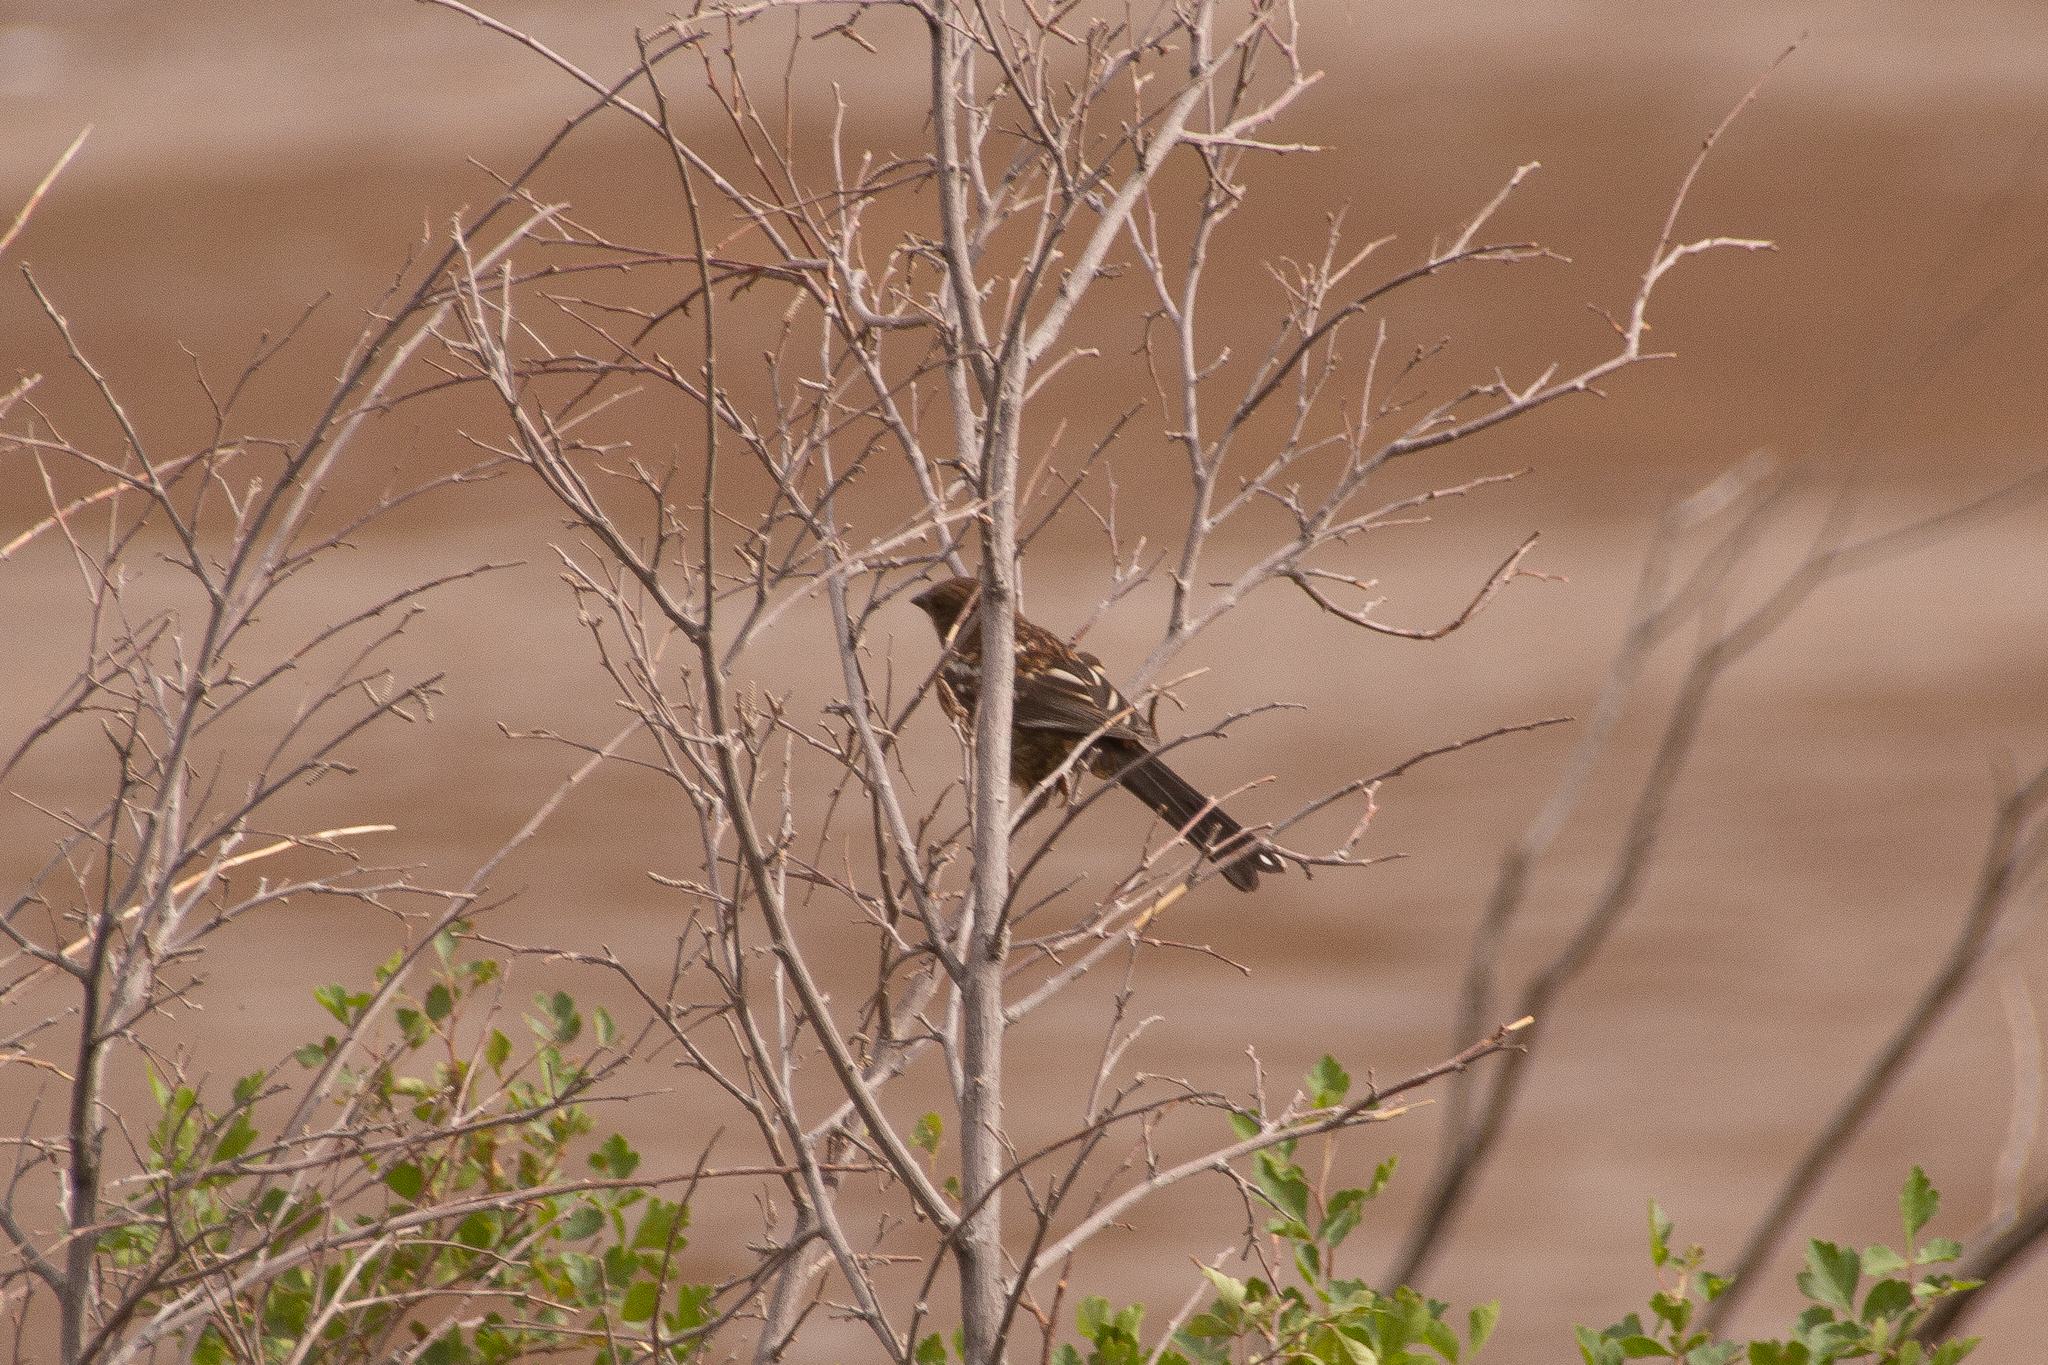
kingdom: Animalia
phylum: Chordata
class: Aves
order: Passeriformes
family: Passerellidae
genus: Pipilo
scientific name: Pipilo maculatus
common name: Spotted towhee
